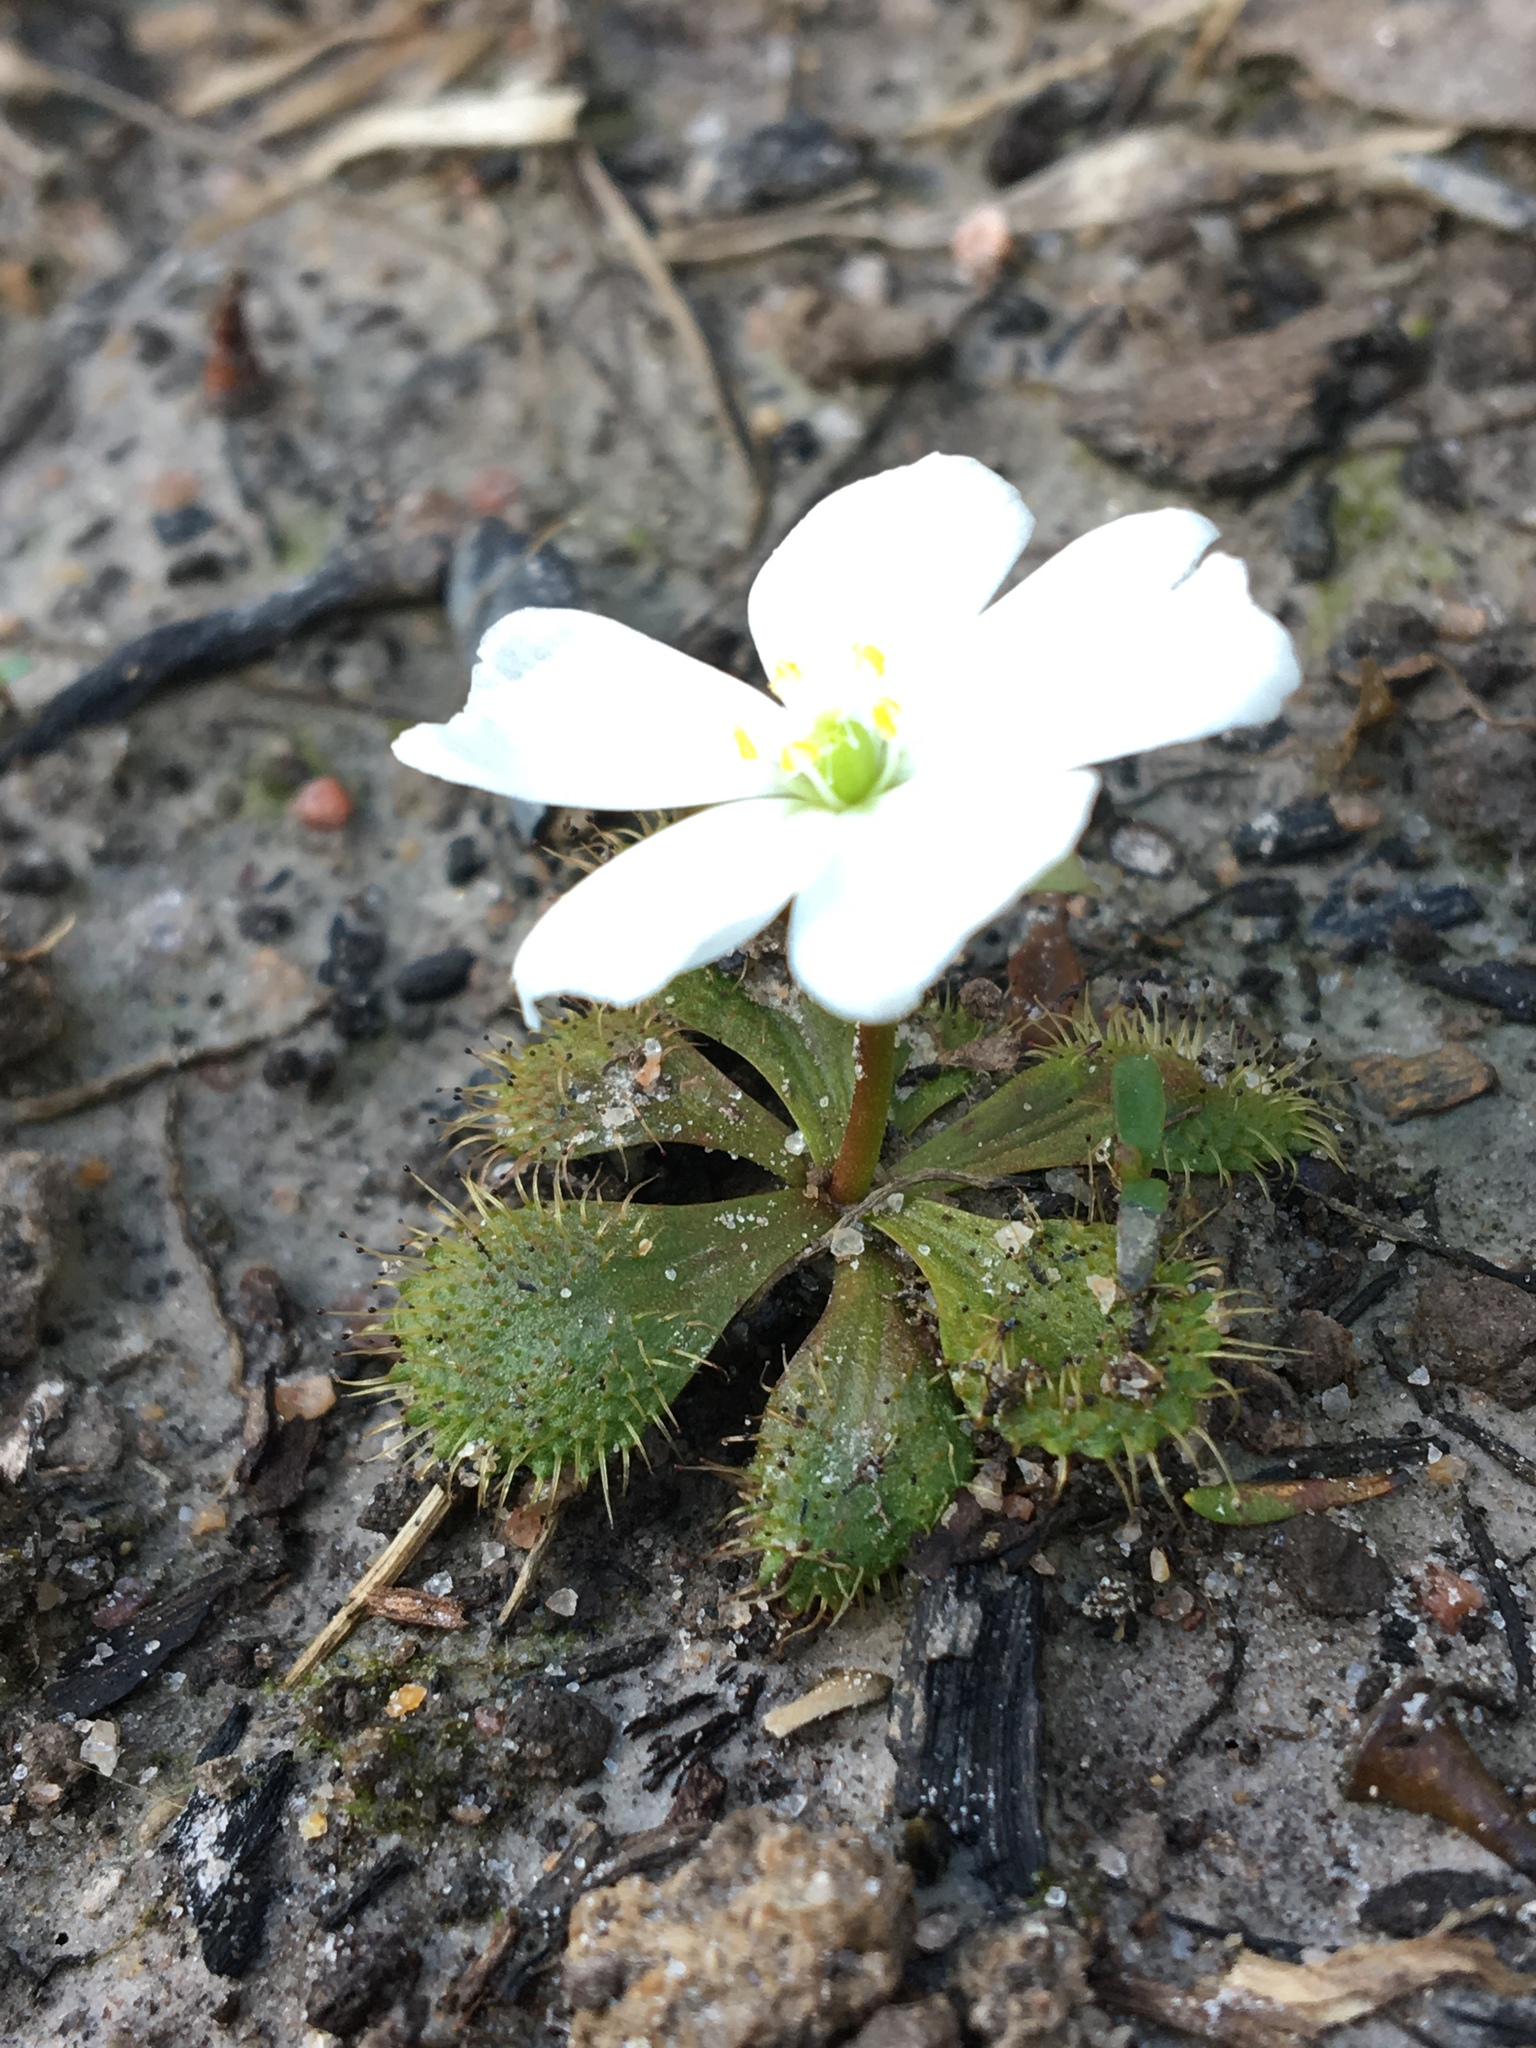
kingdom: Plantae
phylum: Tracheophyta
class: Magnoliopsida
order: Caryophyllales
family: Droseraceae
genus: Drosera
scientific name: Drosera aberrans
